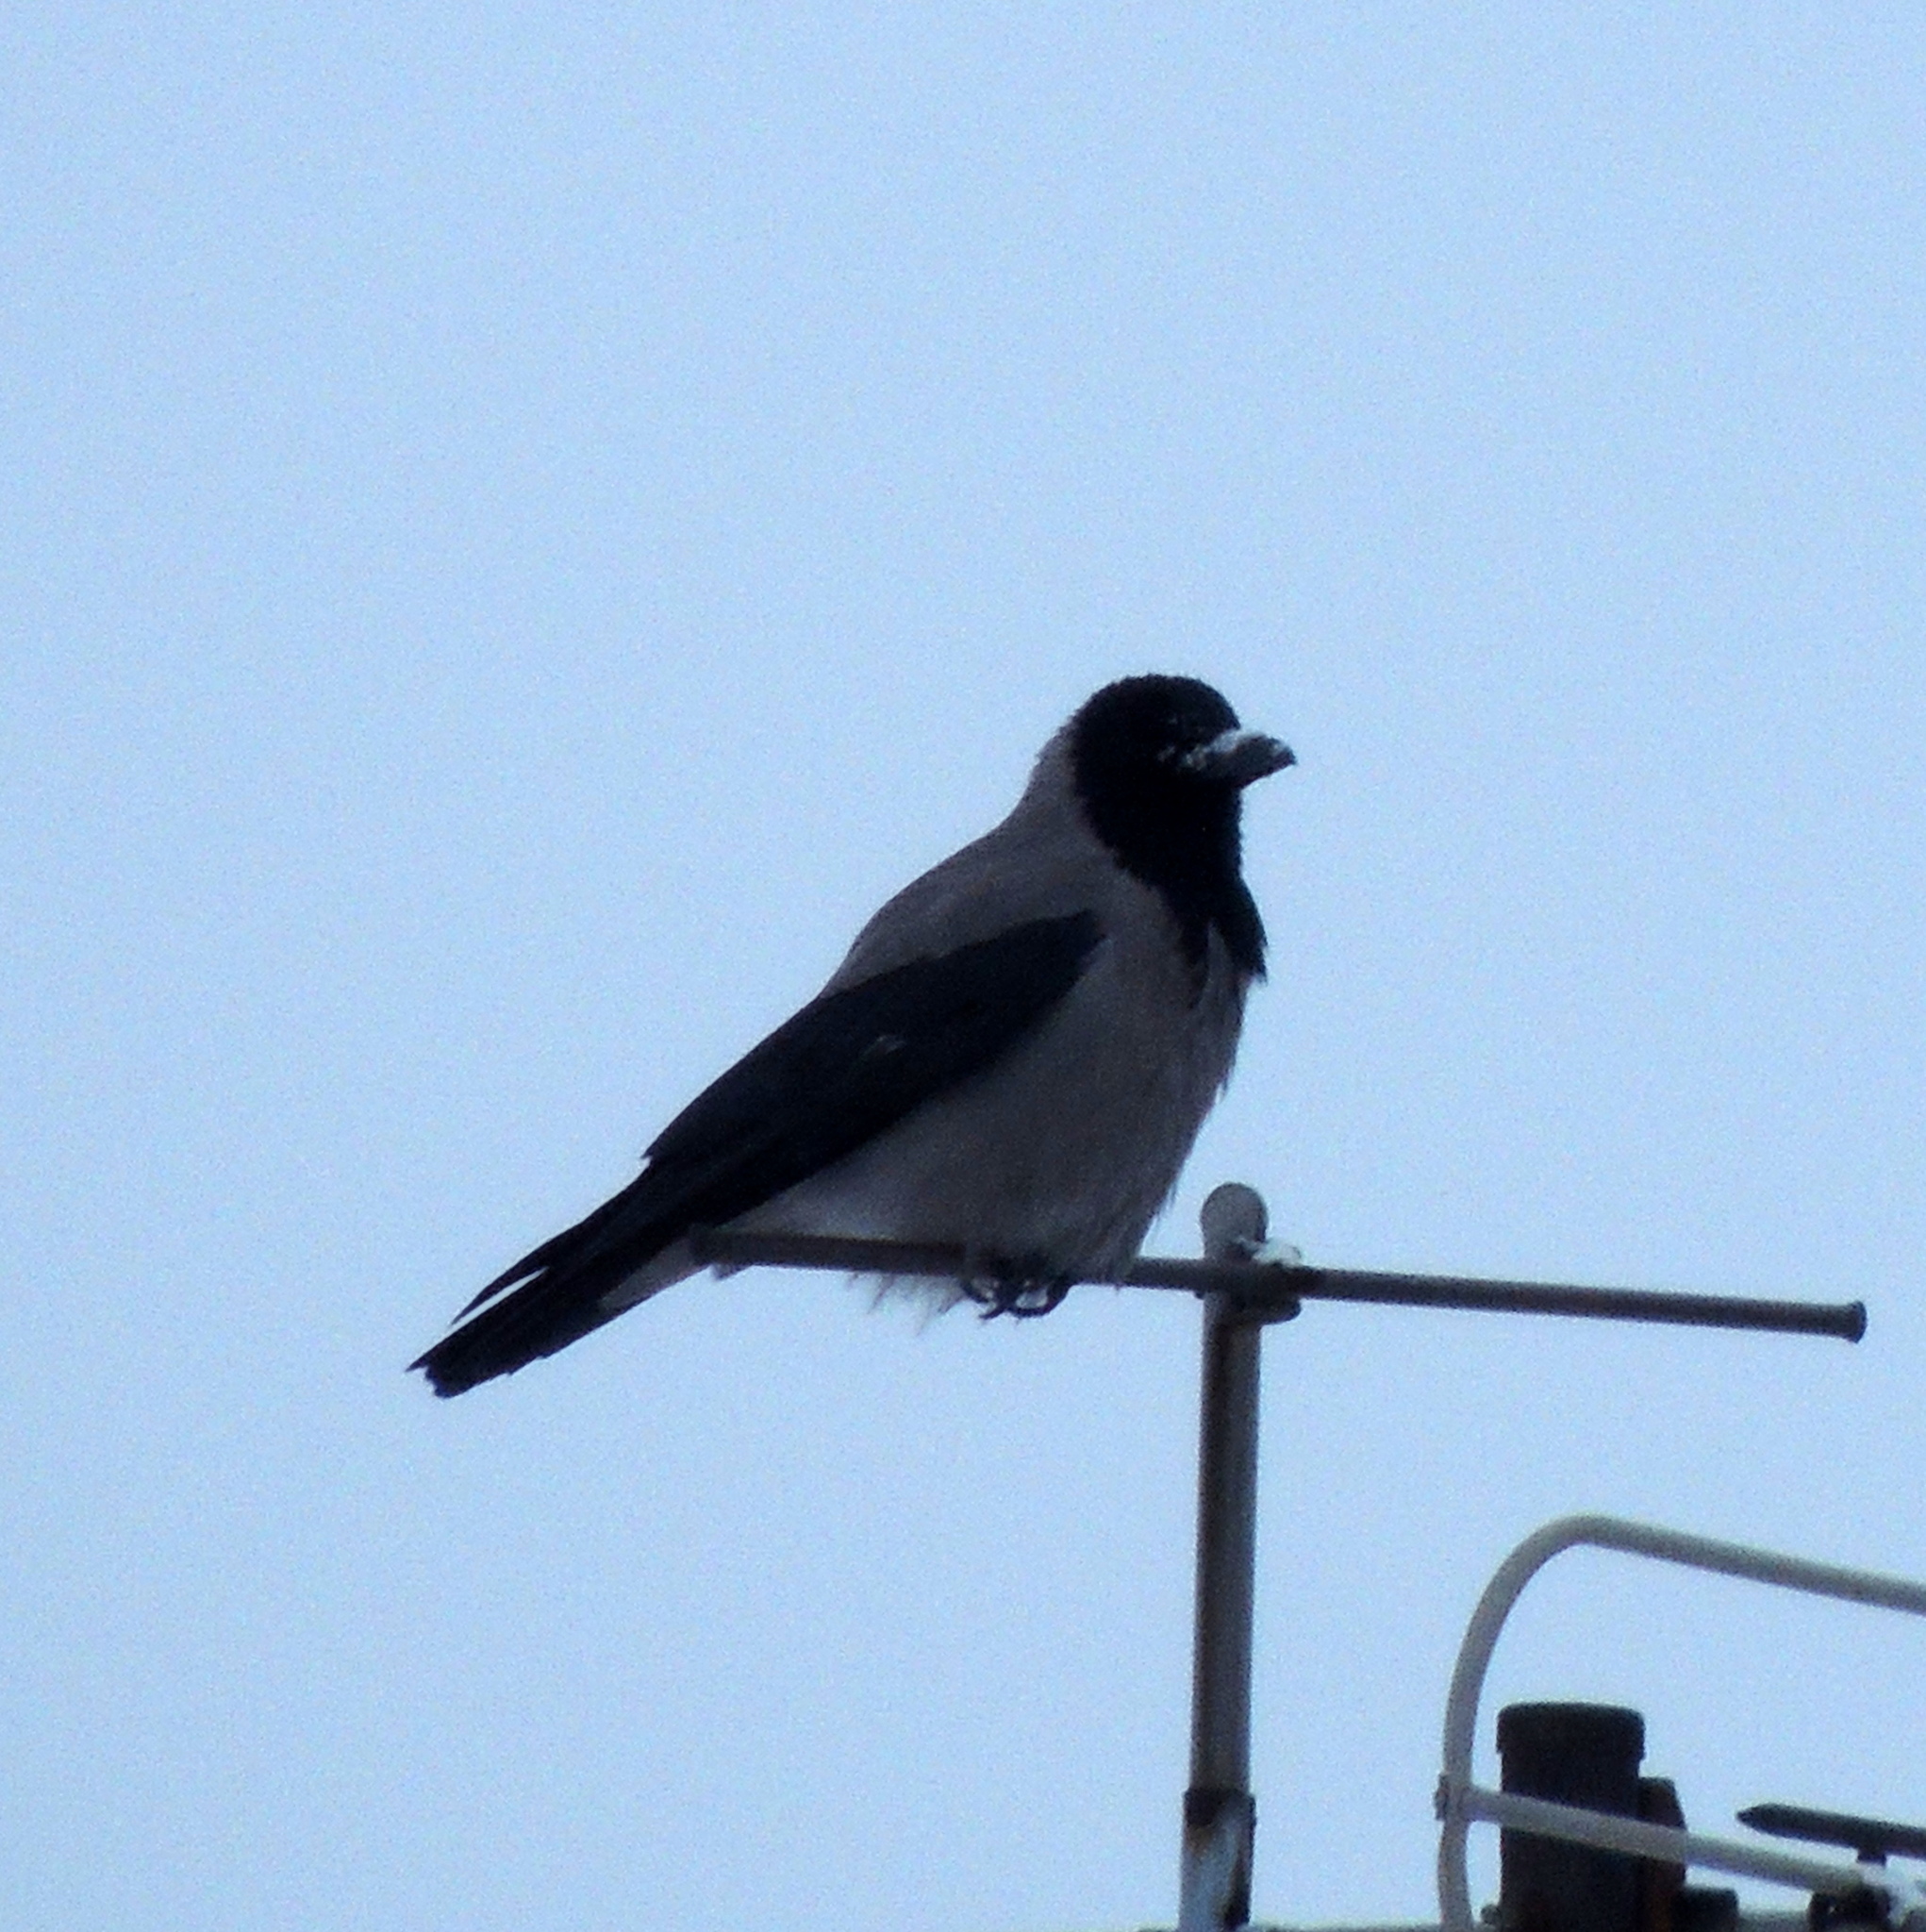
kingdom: Animalia
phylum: Chordata
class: Aves
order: Passeriformes
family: Corvidae
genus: Corvus
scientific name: Corvus cornix
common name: Hooded crow
